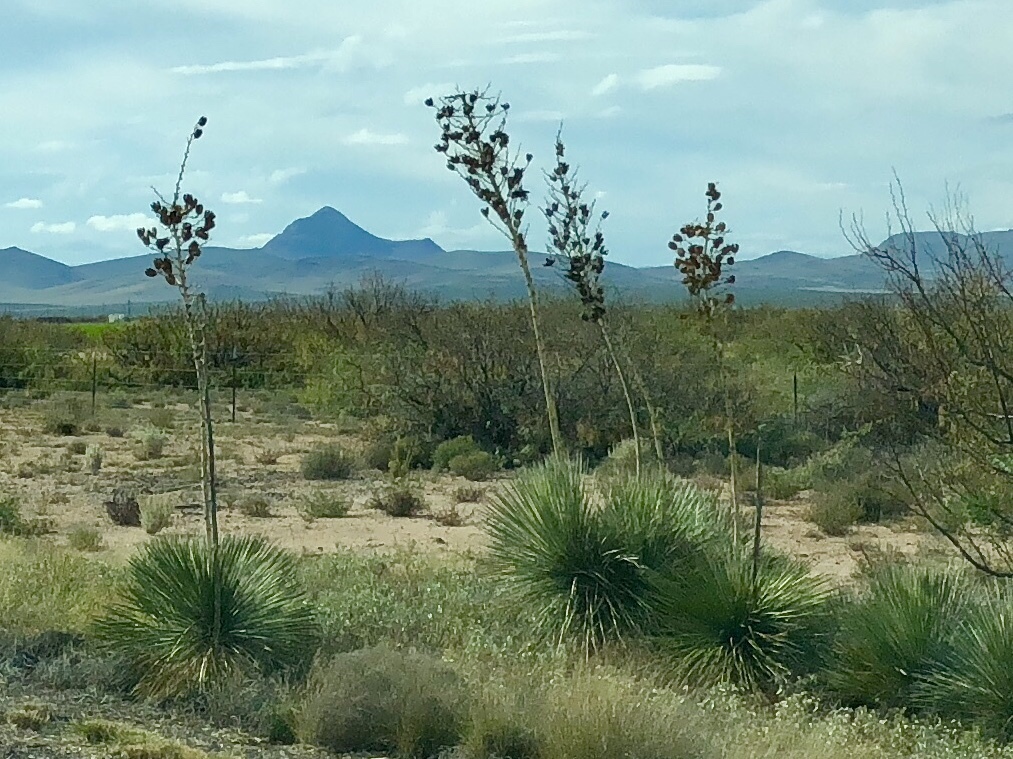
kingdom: Plantae
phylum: Tracheophyta
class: Liliopsida
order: Asparagales
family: Asparagaceae
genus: Yucca
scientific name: Yucca elata
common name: Palmella
